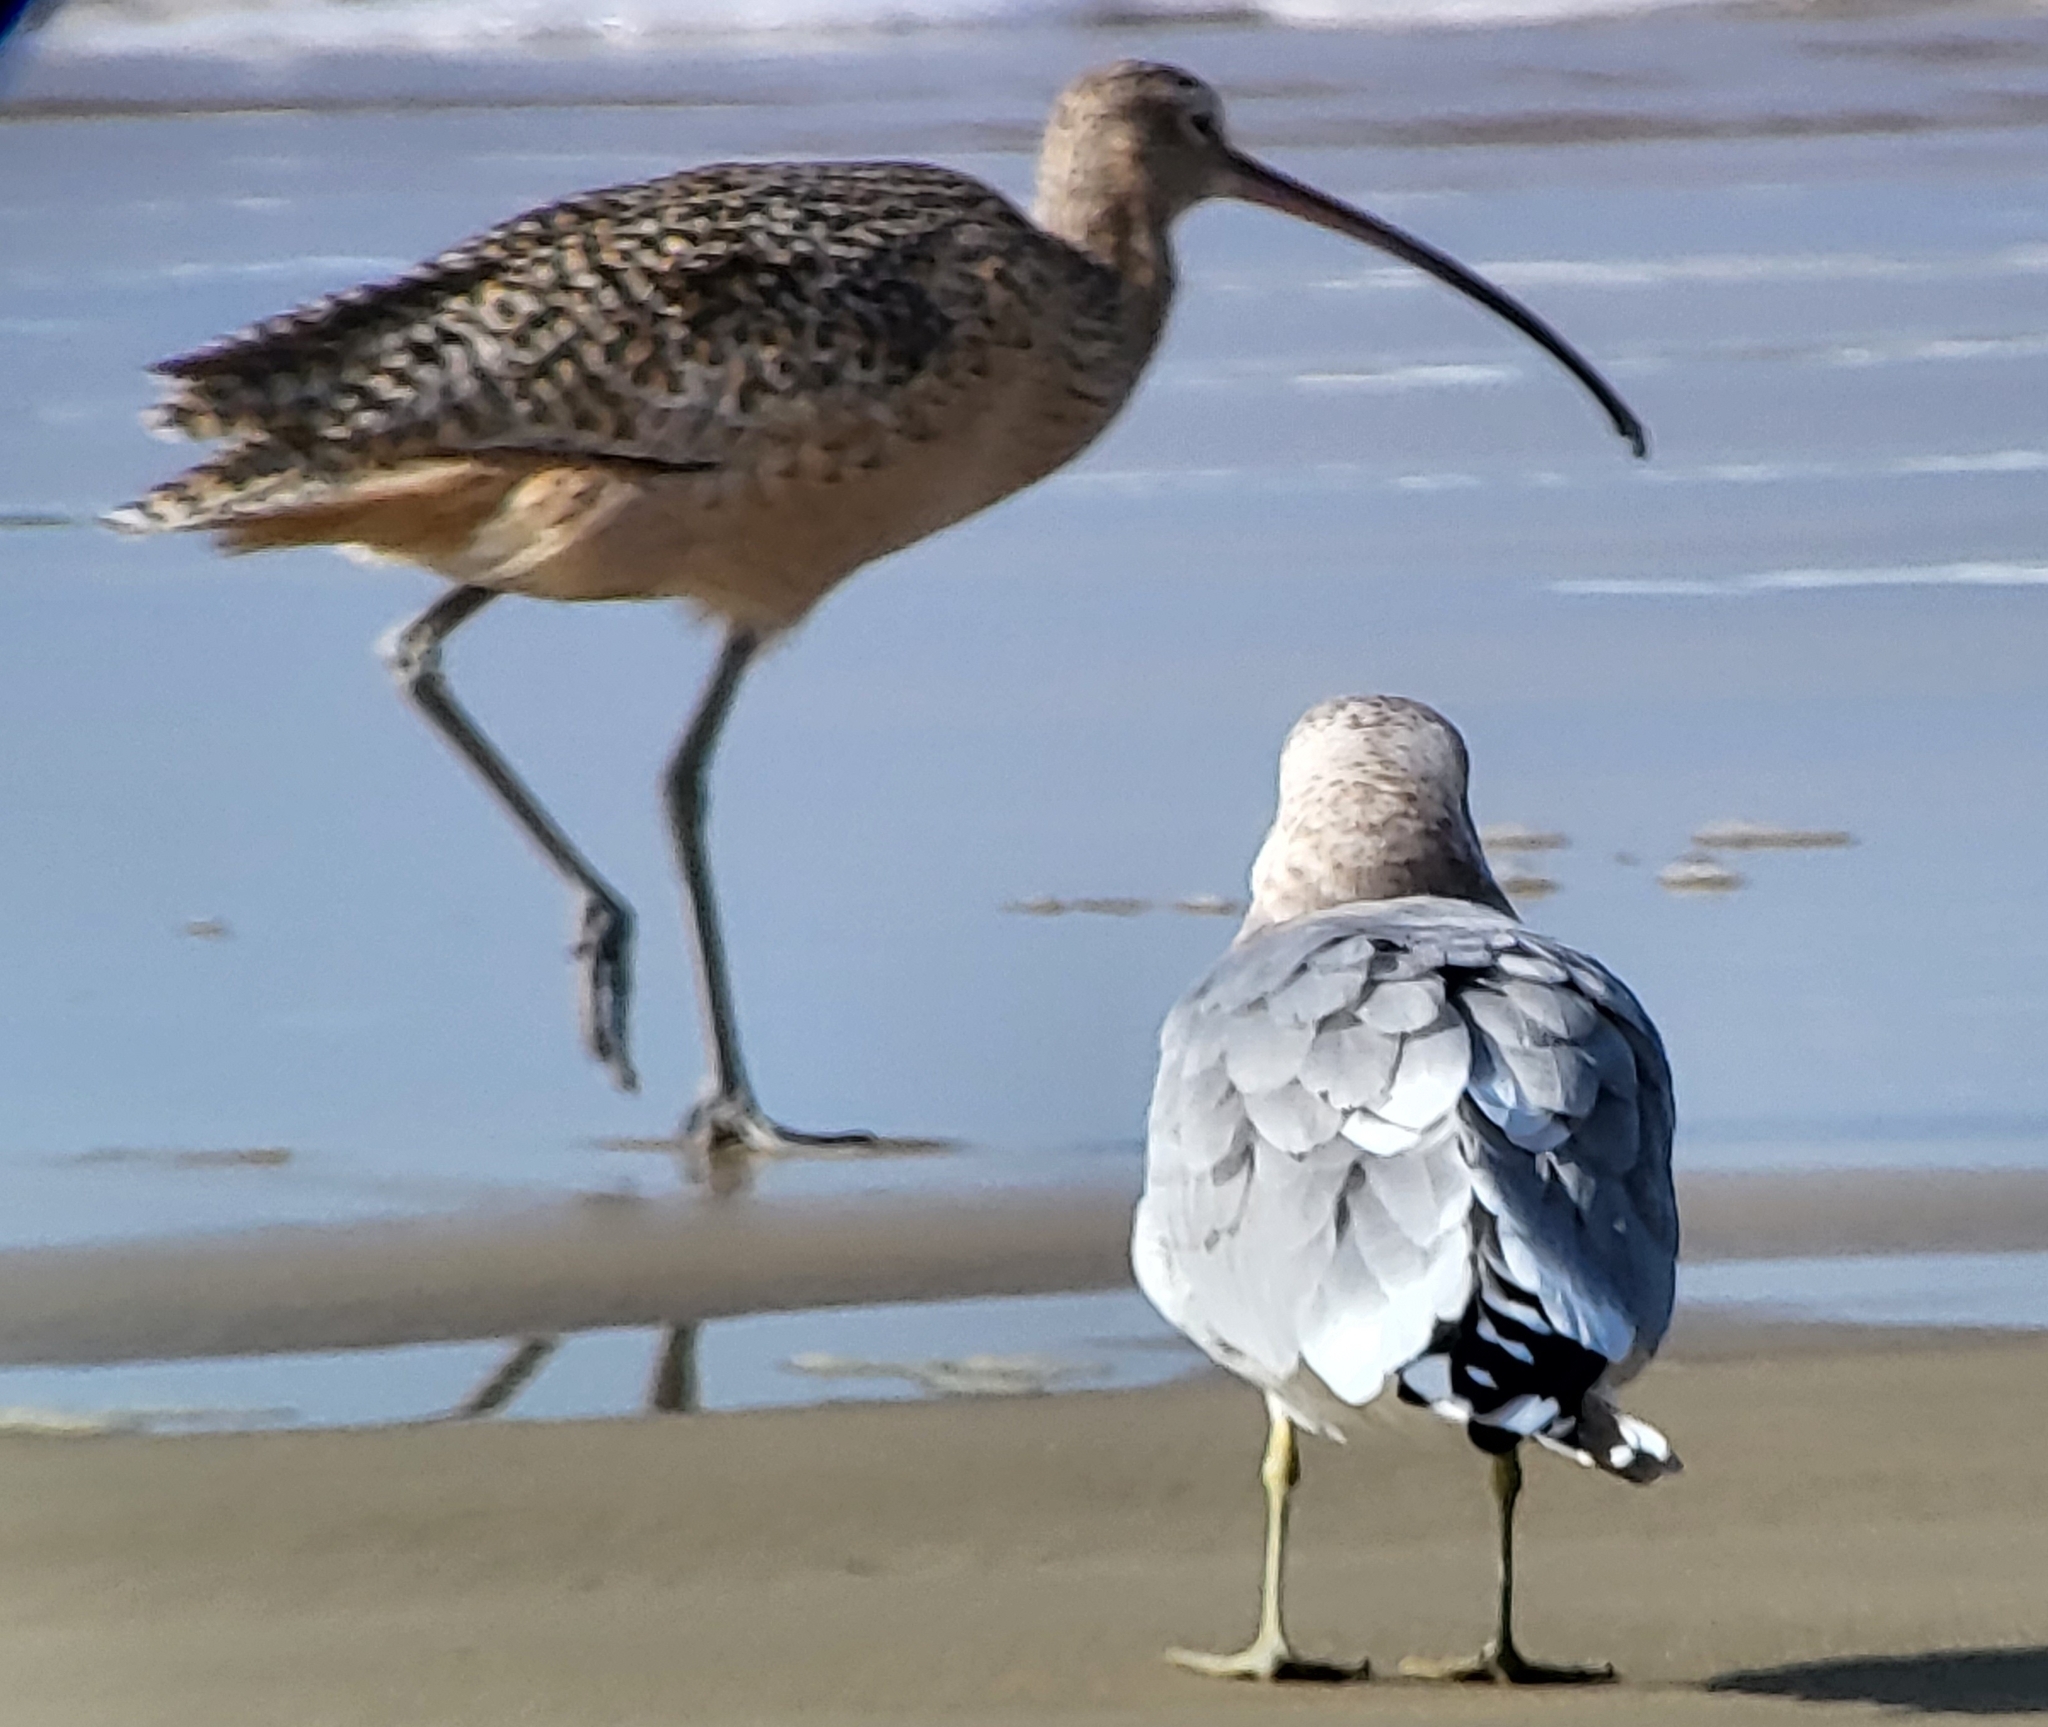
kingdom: Animalia
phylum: Chordata
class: Aves
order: Charadriiformes
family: Scolopacidae
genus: Numenius
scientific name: Numenius americanus
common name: Long-billed curlew
